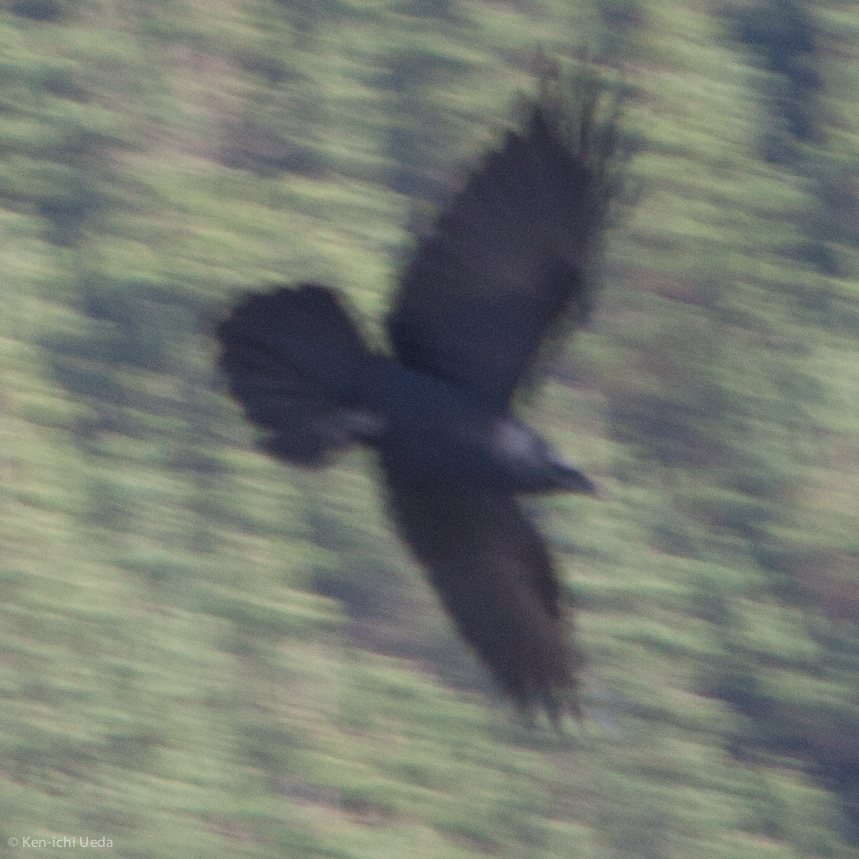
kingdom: Animalia
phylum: Chordata
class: Aves
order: Passeriformes
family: Corvidae
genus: Corvus
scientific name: Corvus corax
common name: Common raven
